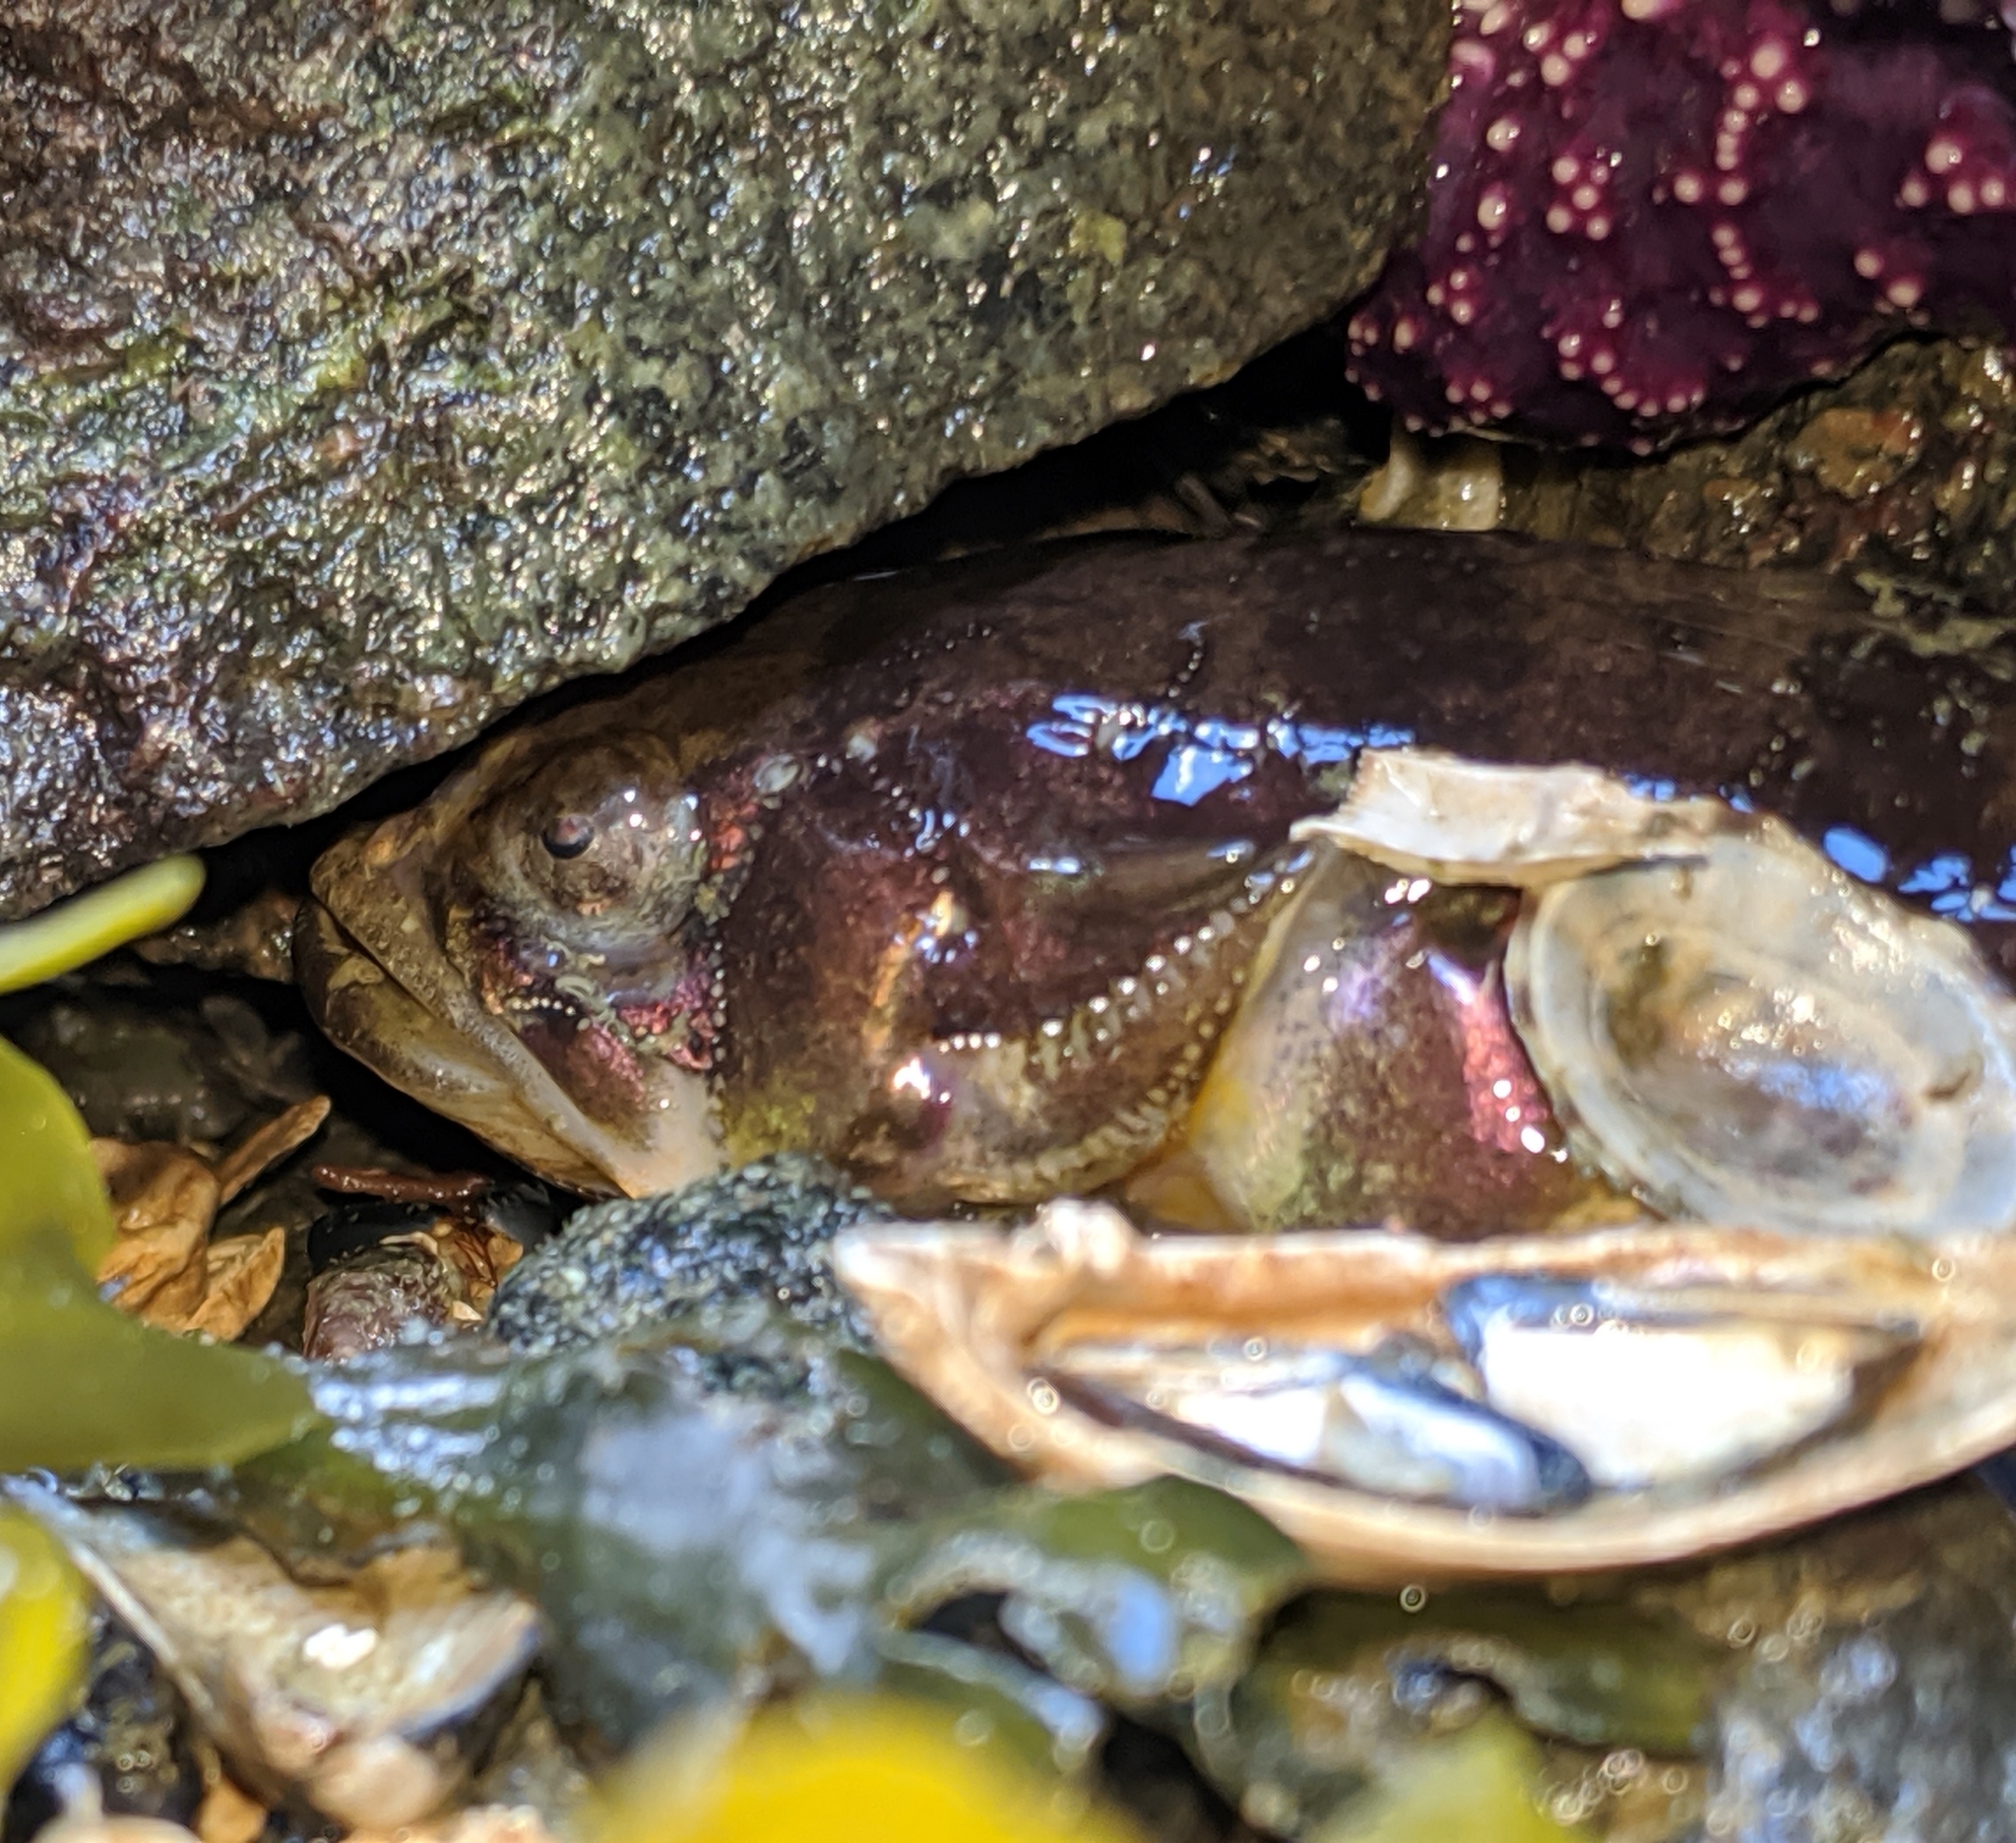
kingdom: Animalia
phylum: Chordata
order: Batrachoidiformes
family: Batrachoididae
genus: Porichthys
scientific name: Porichthys notatus
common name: Plainfin midshipman
